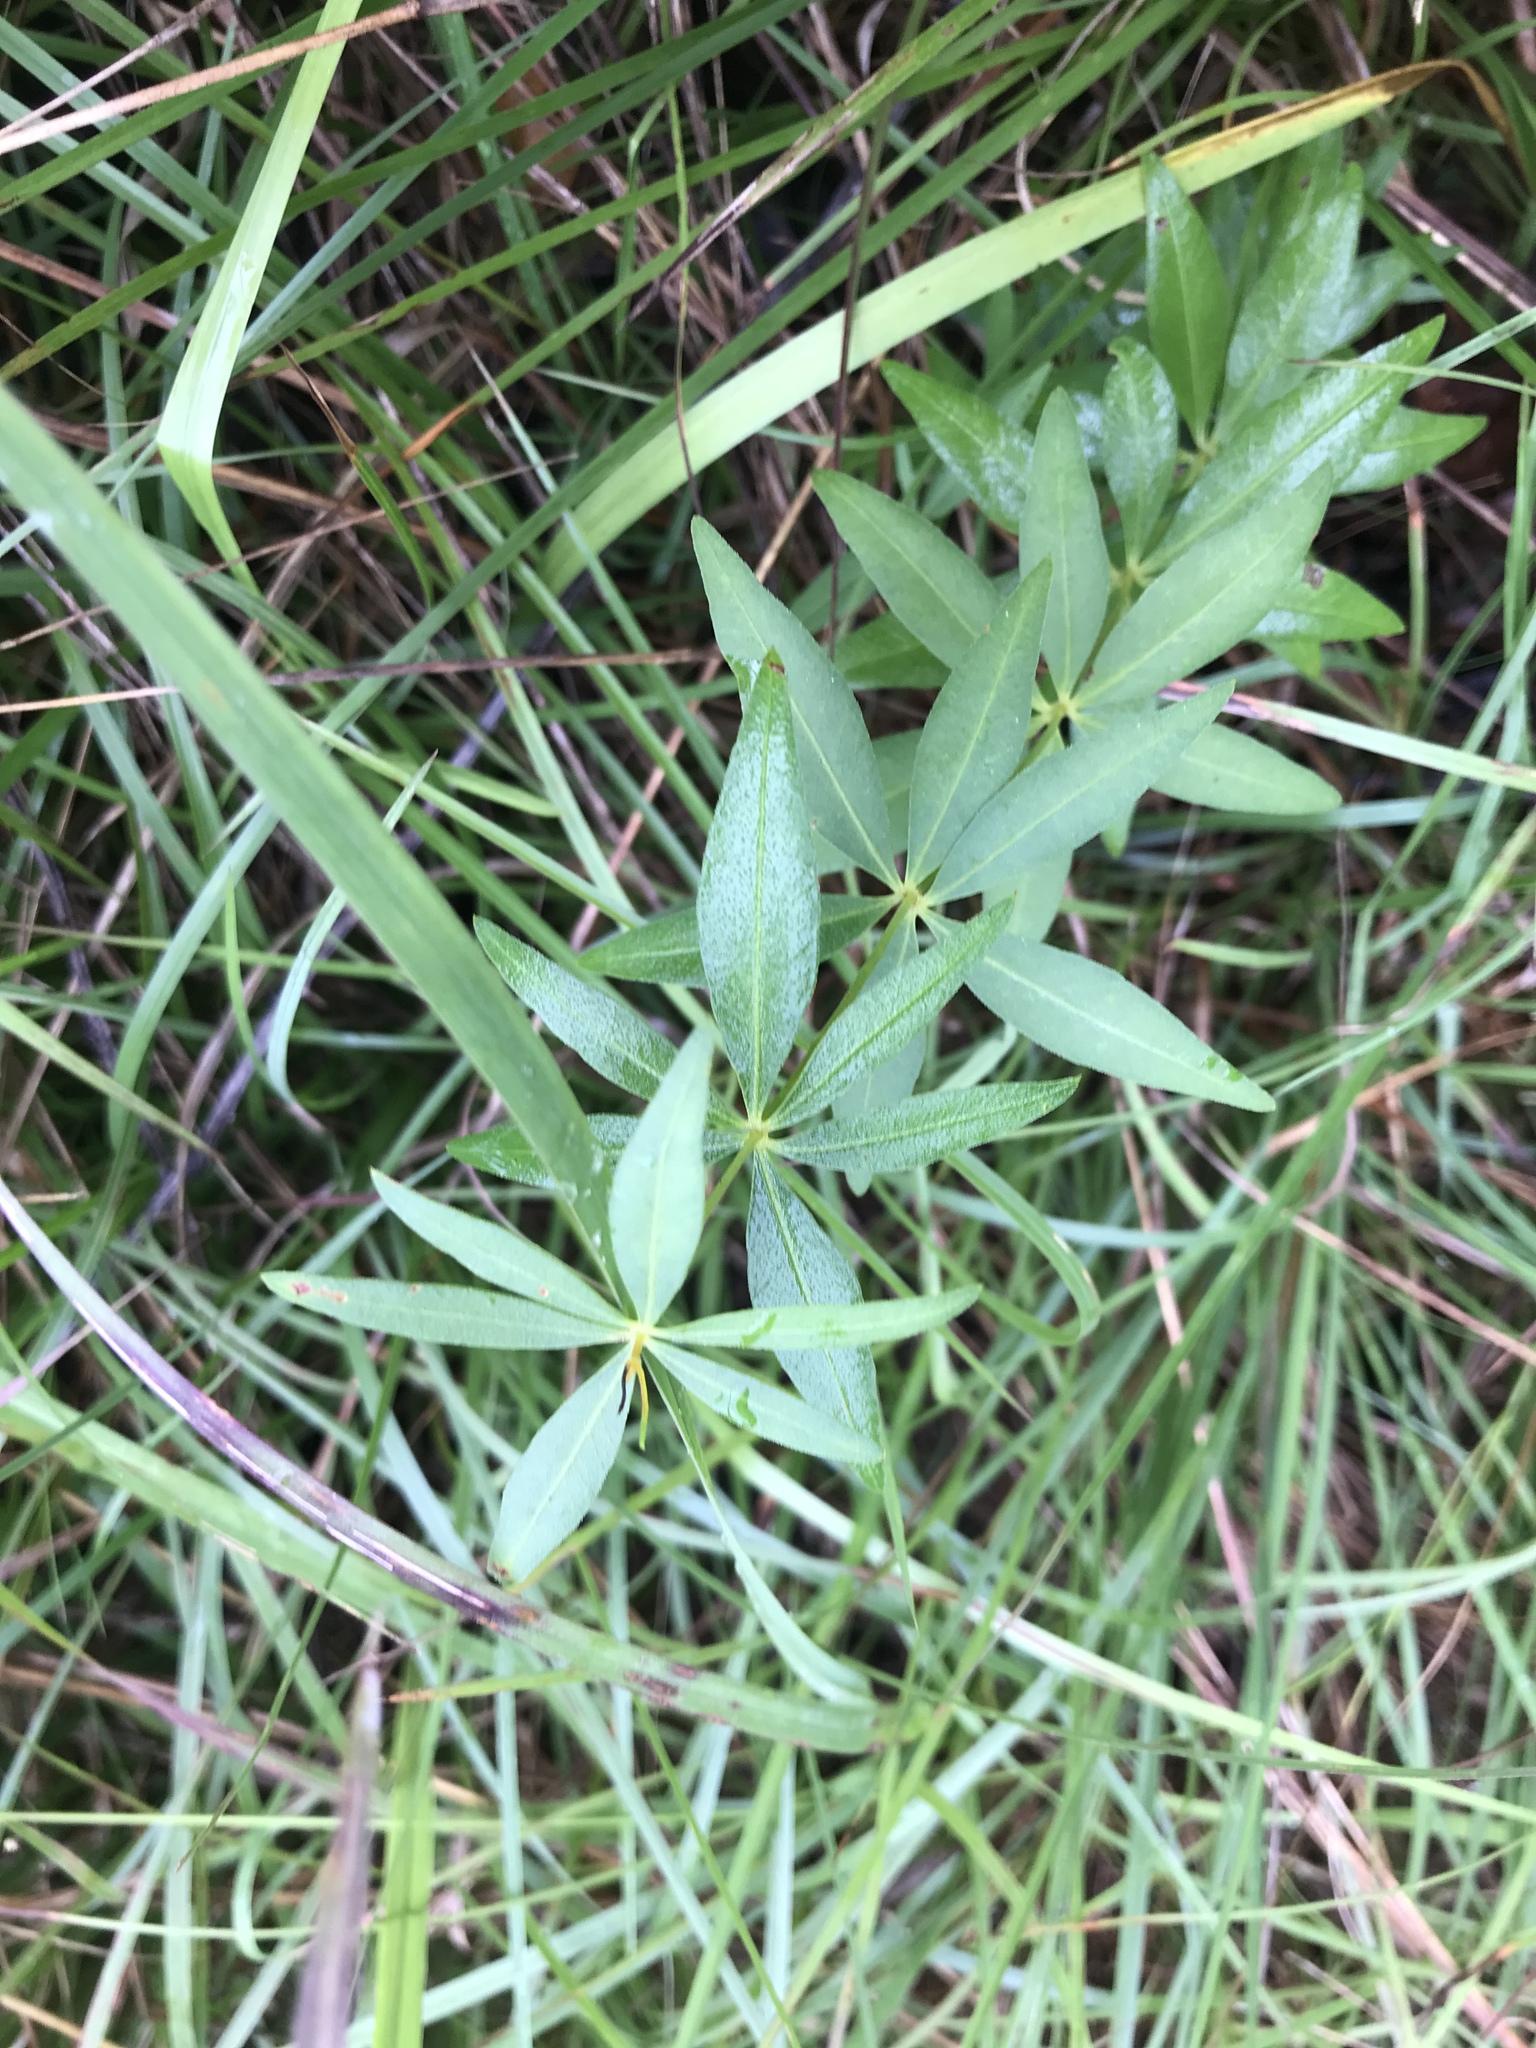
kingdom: Plantae
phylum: Tracheophyta
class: Magnoliopsida
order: Asterales
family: Asteraceae
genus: Coreopsis
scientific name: Coreopsis major
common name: Forest tickseed
